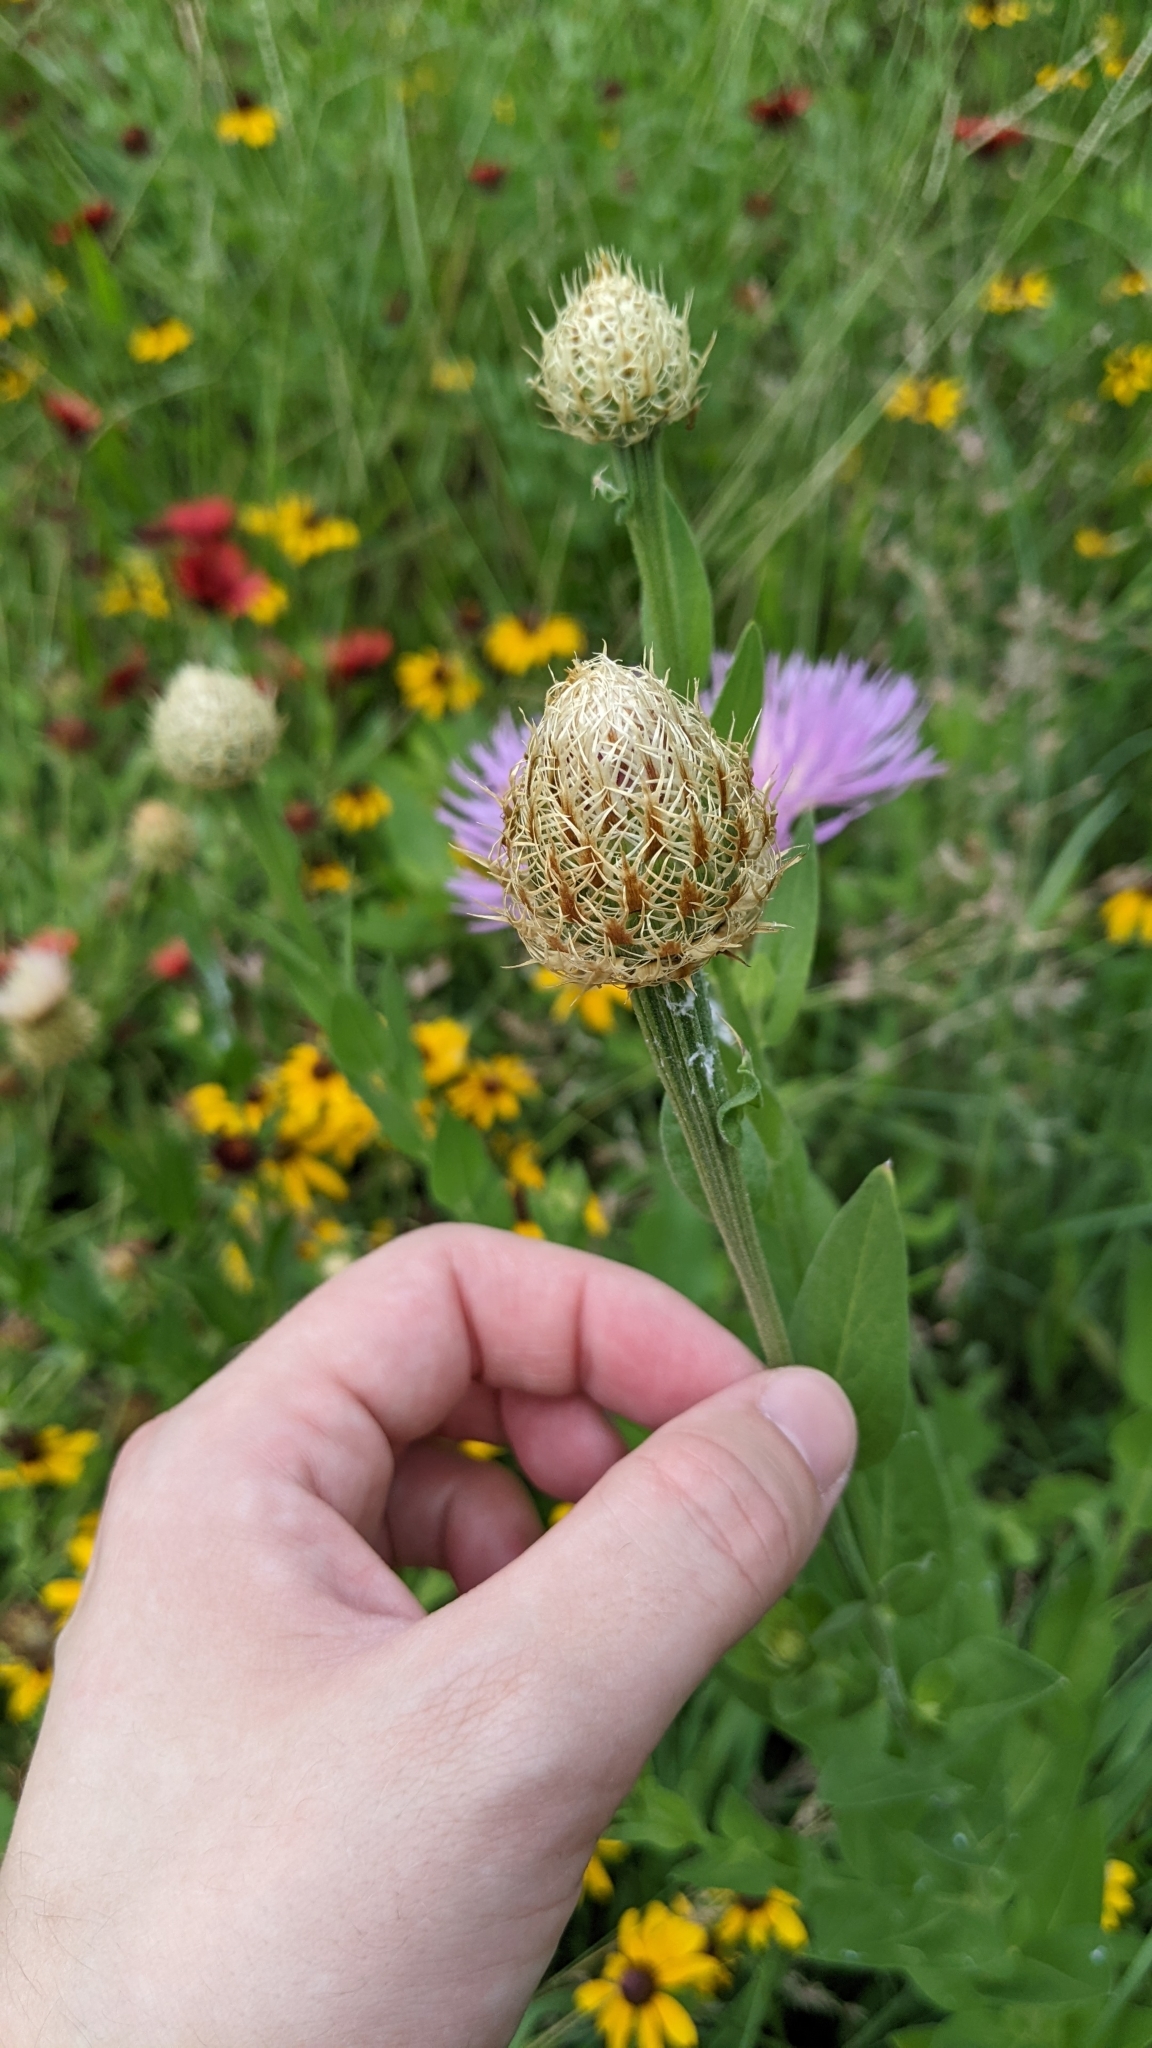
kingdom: Plantae
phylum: Tracheophyta
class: Magnoliopsida
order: Asterales
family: Asteraceae
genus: Plectocephalus
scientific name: Plectocephalus americanus
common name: American basket-flower
